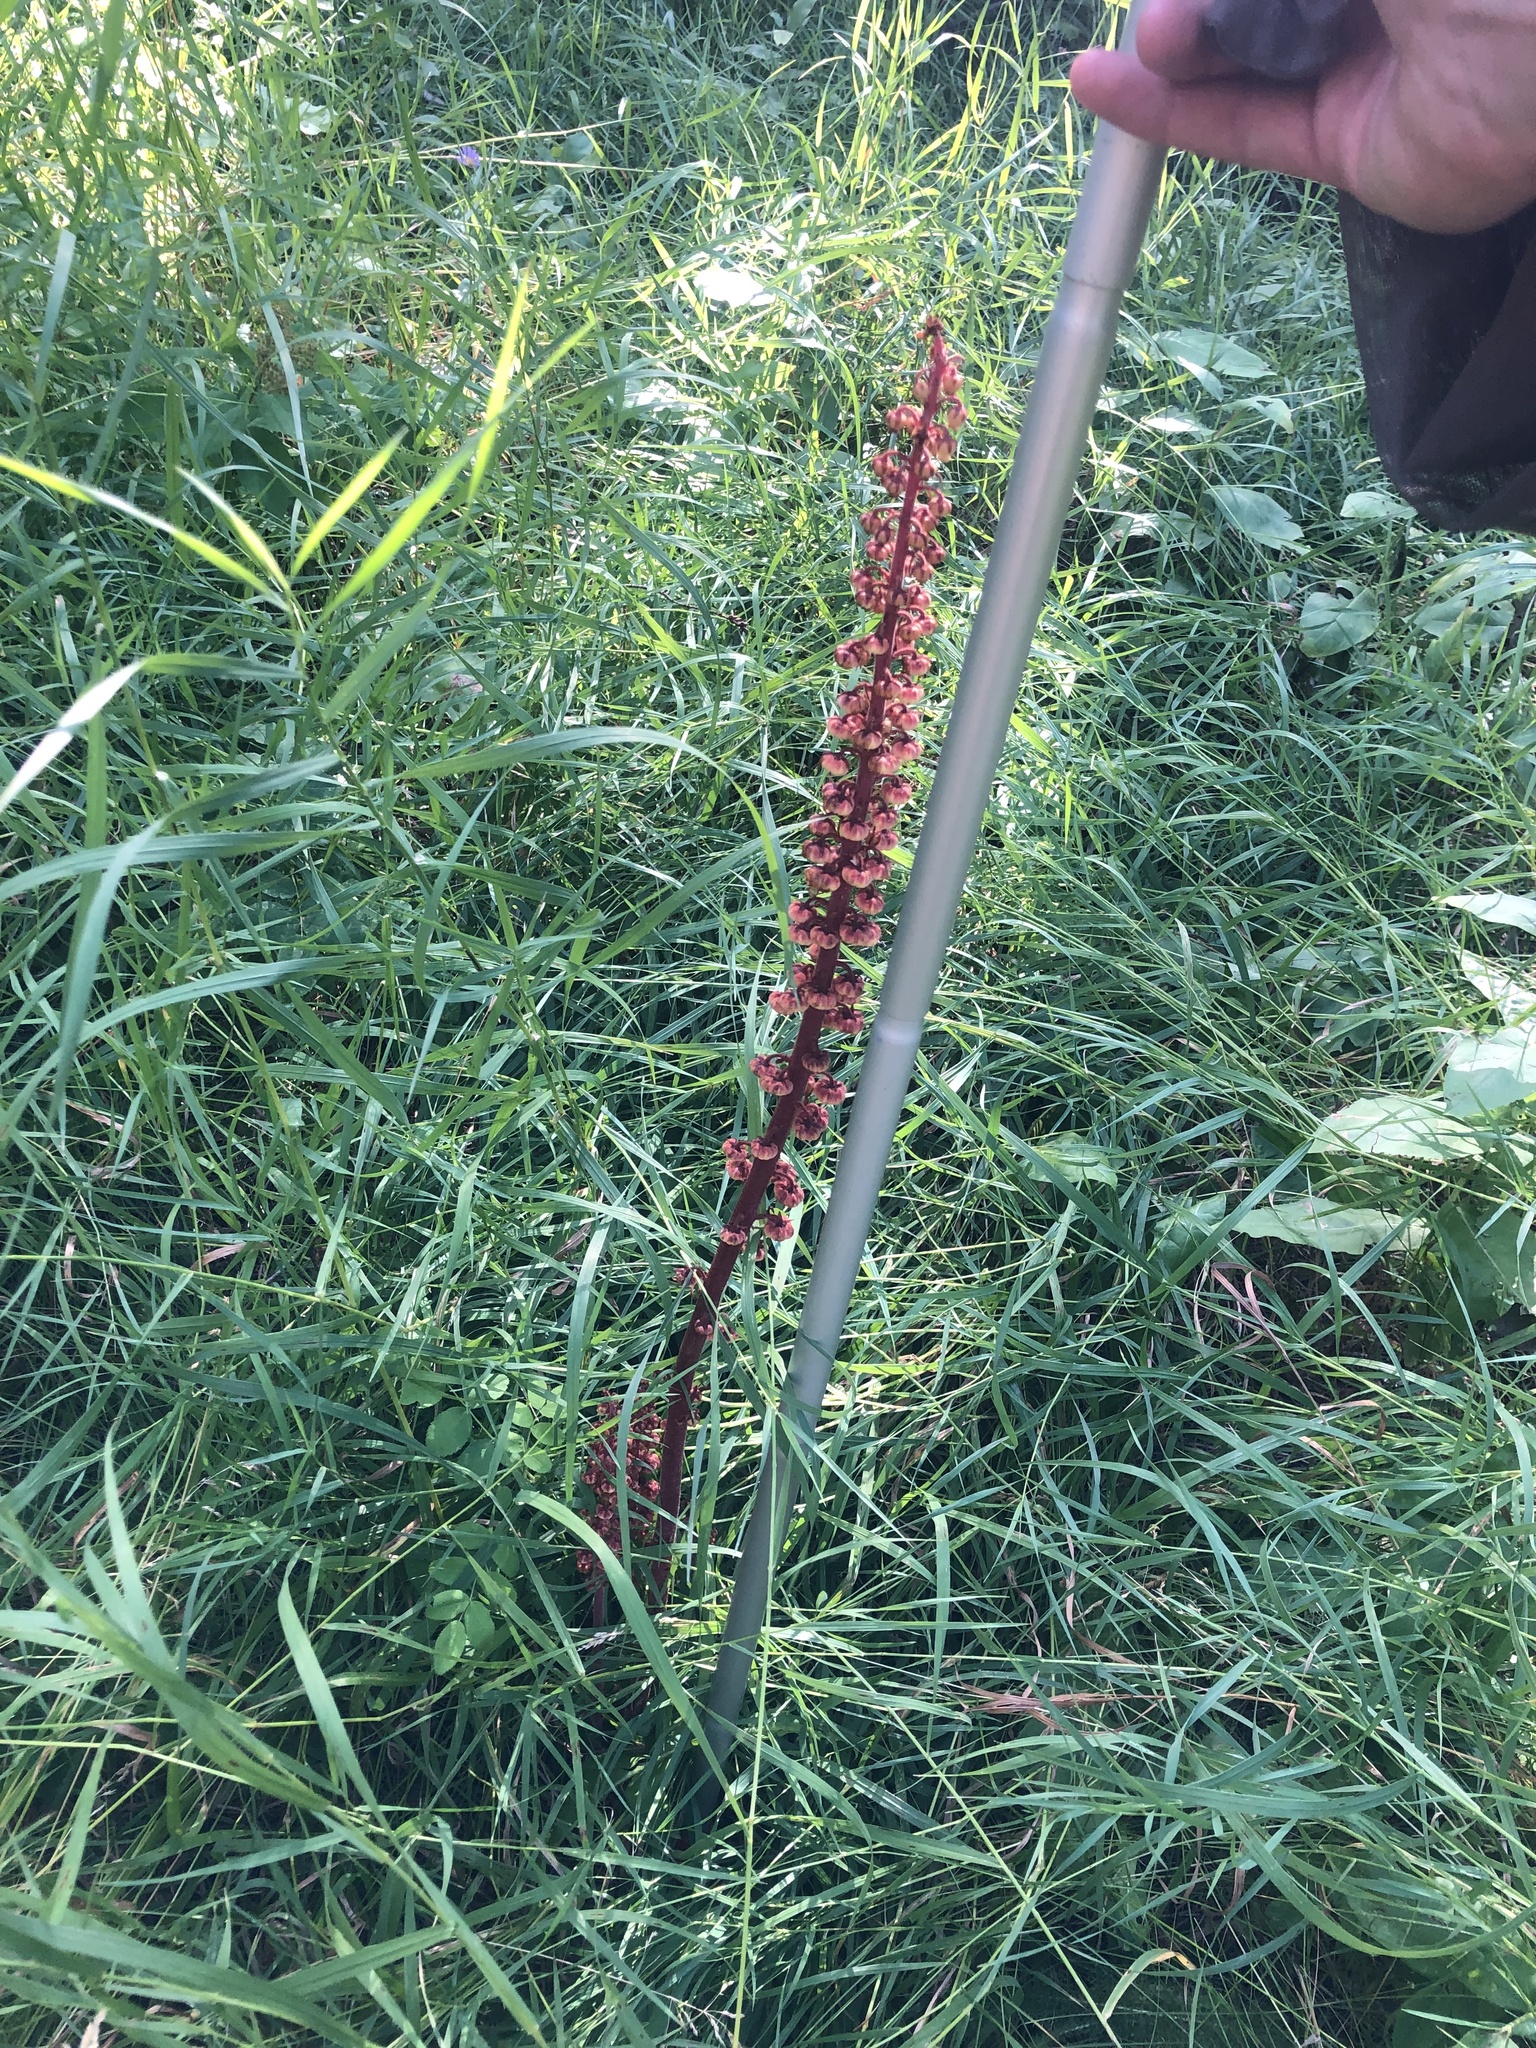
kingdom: Plantae
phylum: Tracheophyta
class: Magnoliopsida
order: Ericales
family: Ericaceae
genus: Pterospora
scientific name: Pterospora andromedea
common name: Giant bird's-nest
